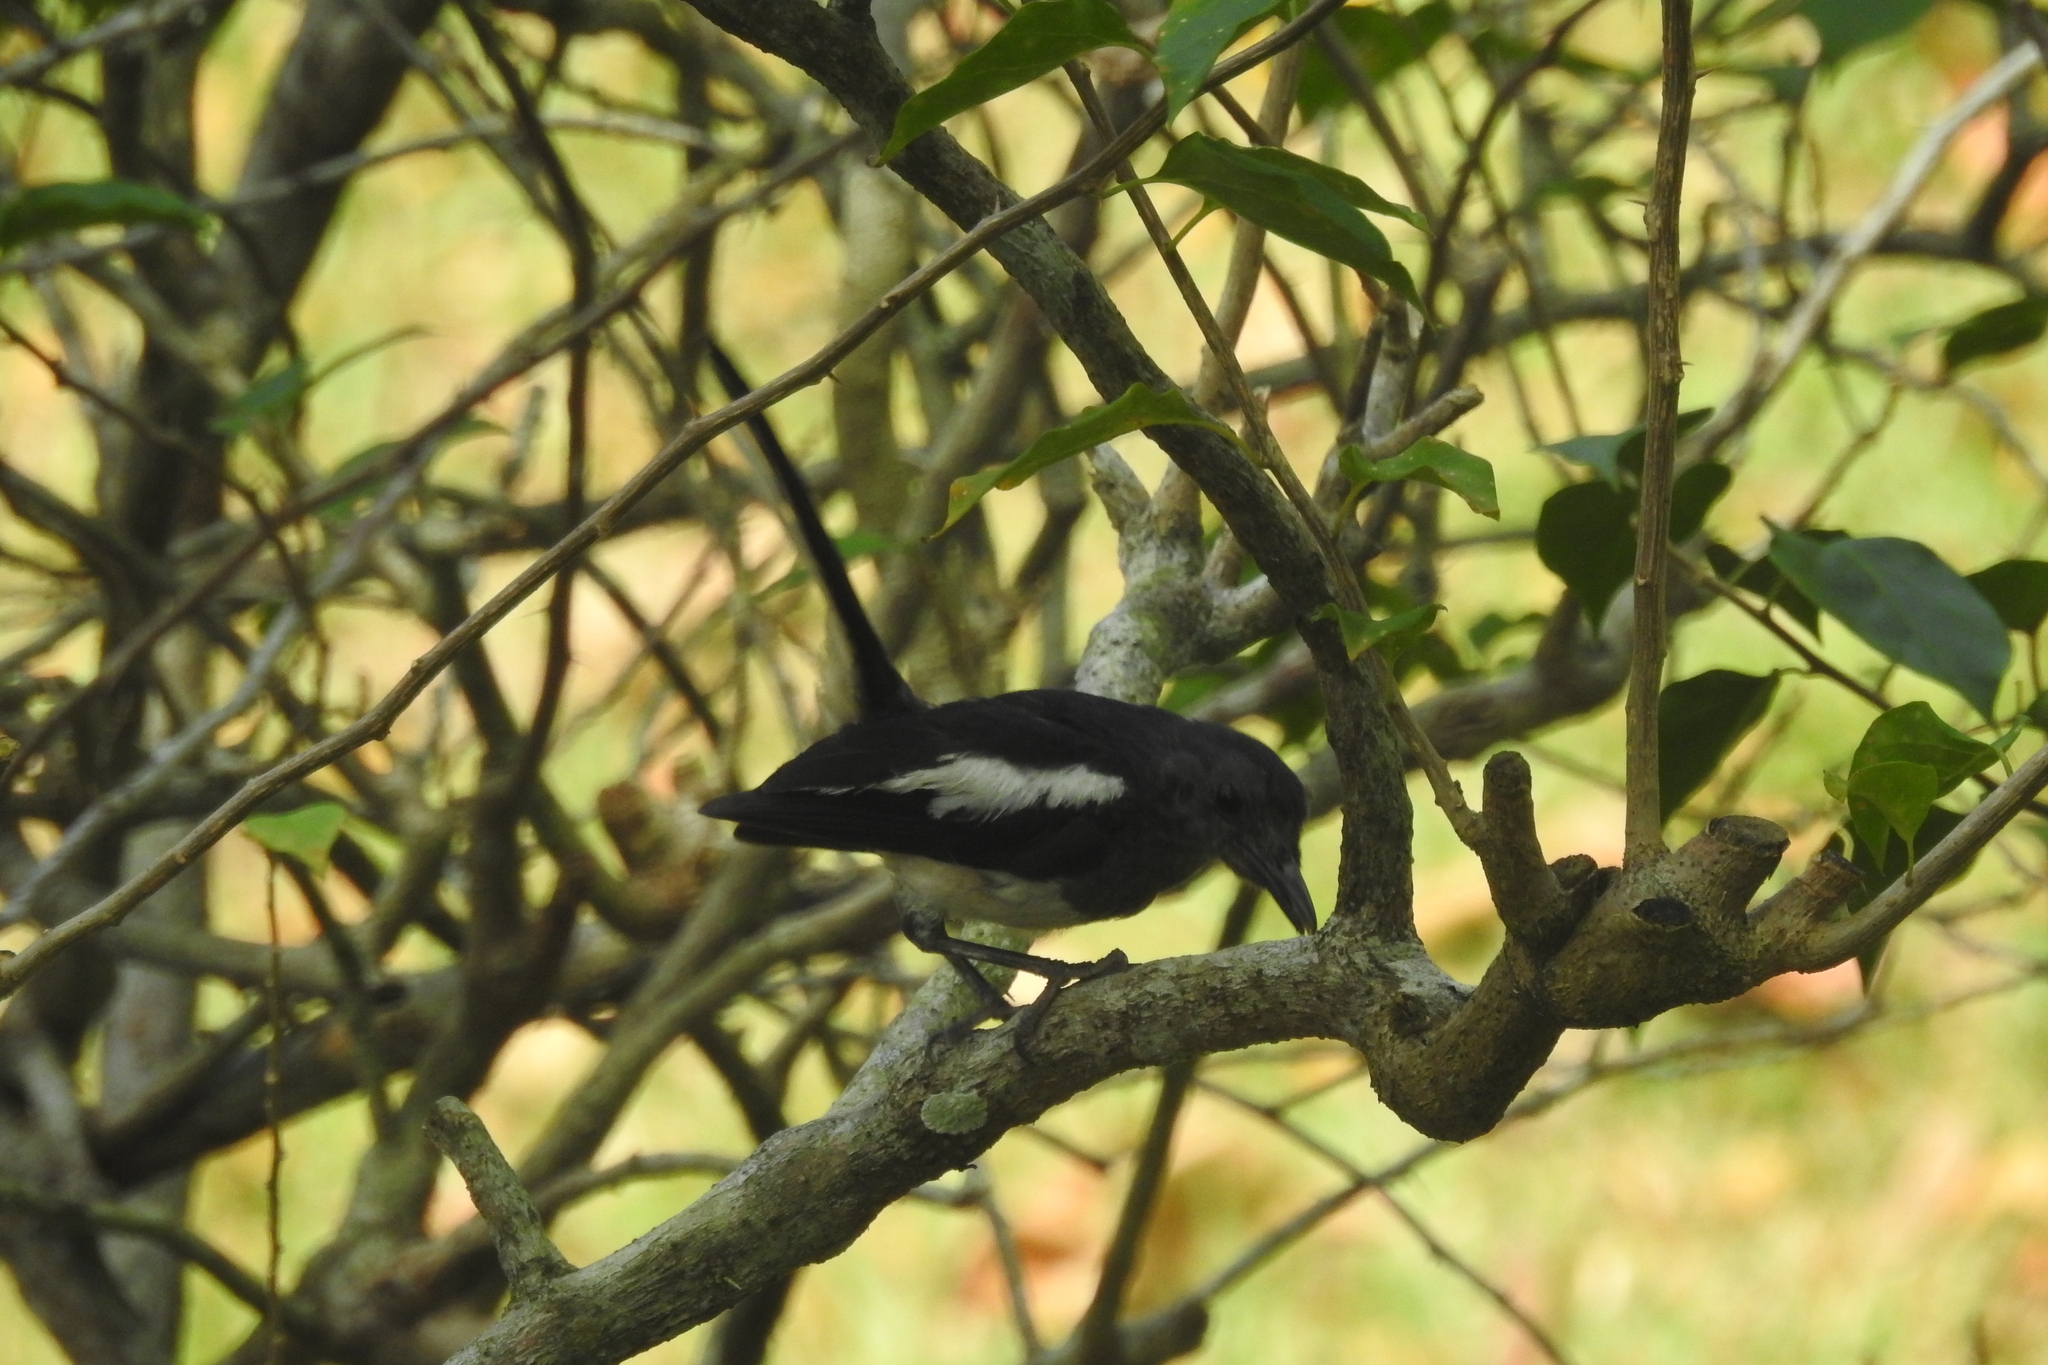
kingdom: Animalia
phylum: Chordata
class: Aves
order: Passeriformes
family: Muscicapidae
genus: Copsychus
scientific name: Copsychus saularis
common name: Oriental magpie-robin
